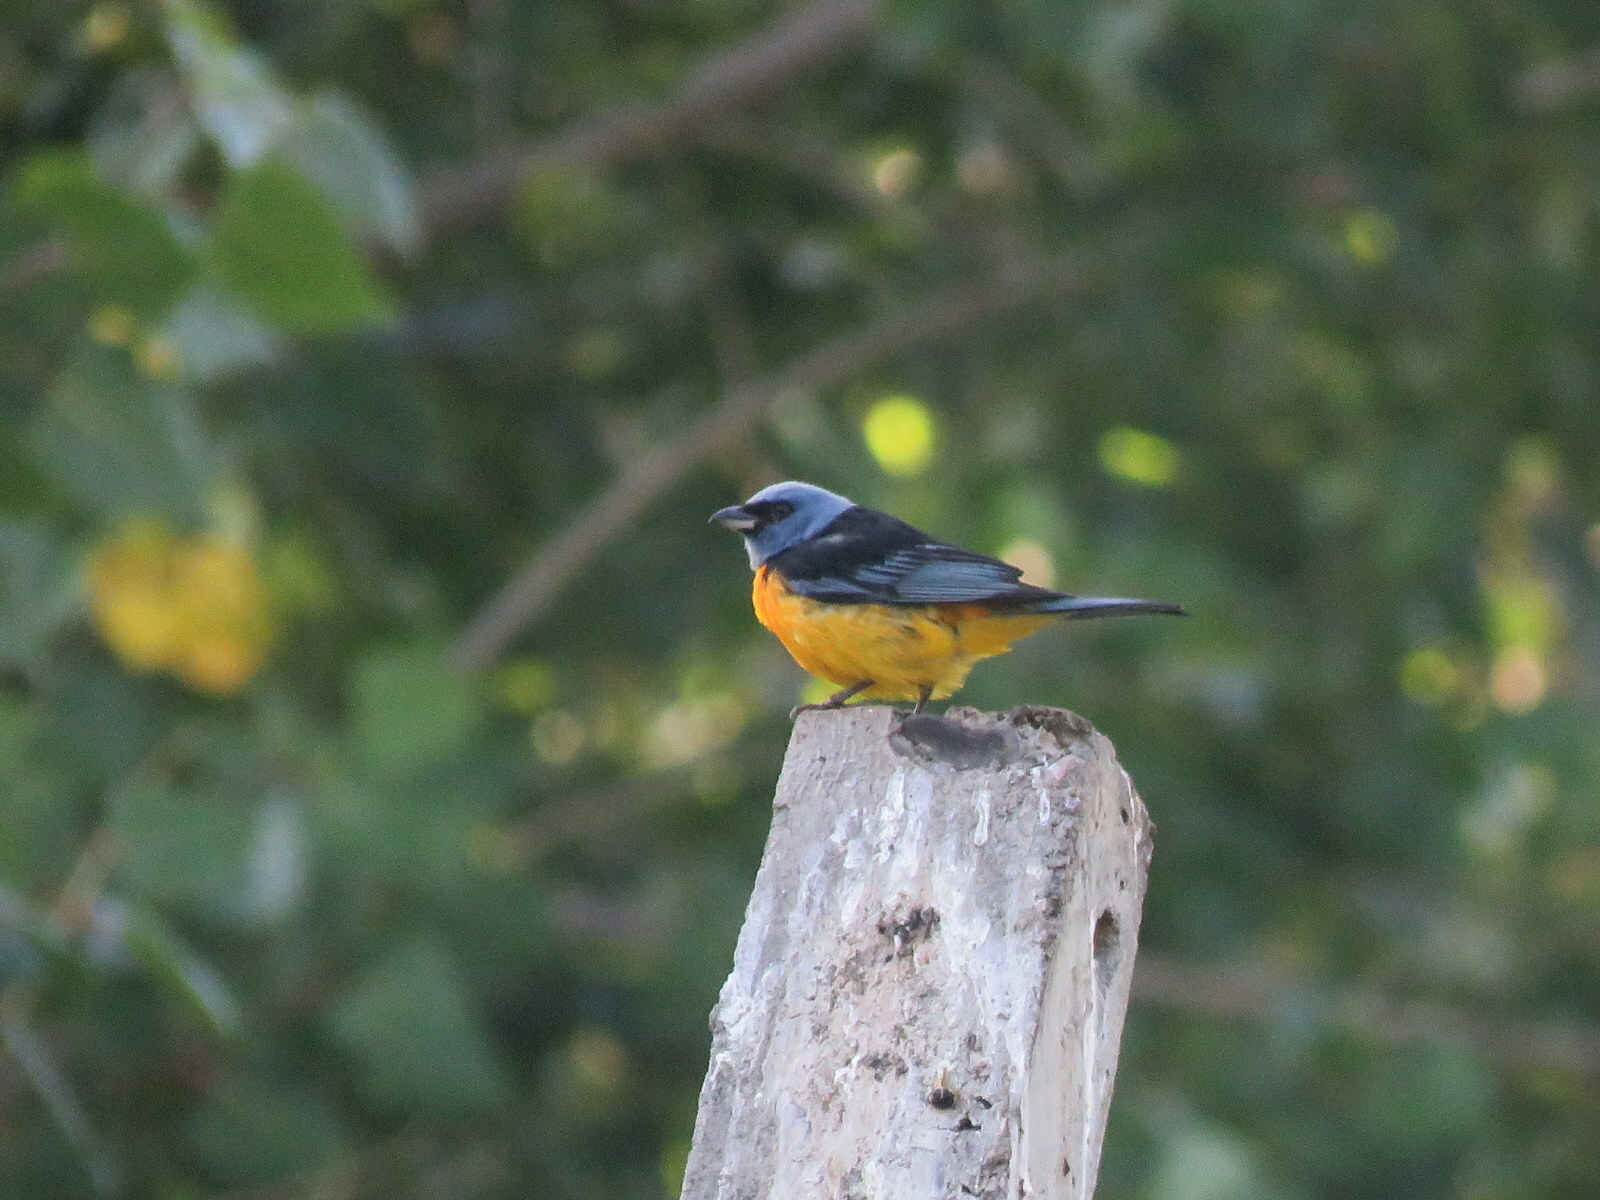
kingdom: Animalia
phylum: Chordata
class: Aves
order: Passeriformes
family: Thraupidae
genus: Rauenia
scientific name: Rauenia bonariensis
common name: Blue-and-yellow tanager
